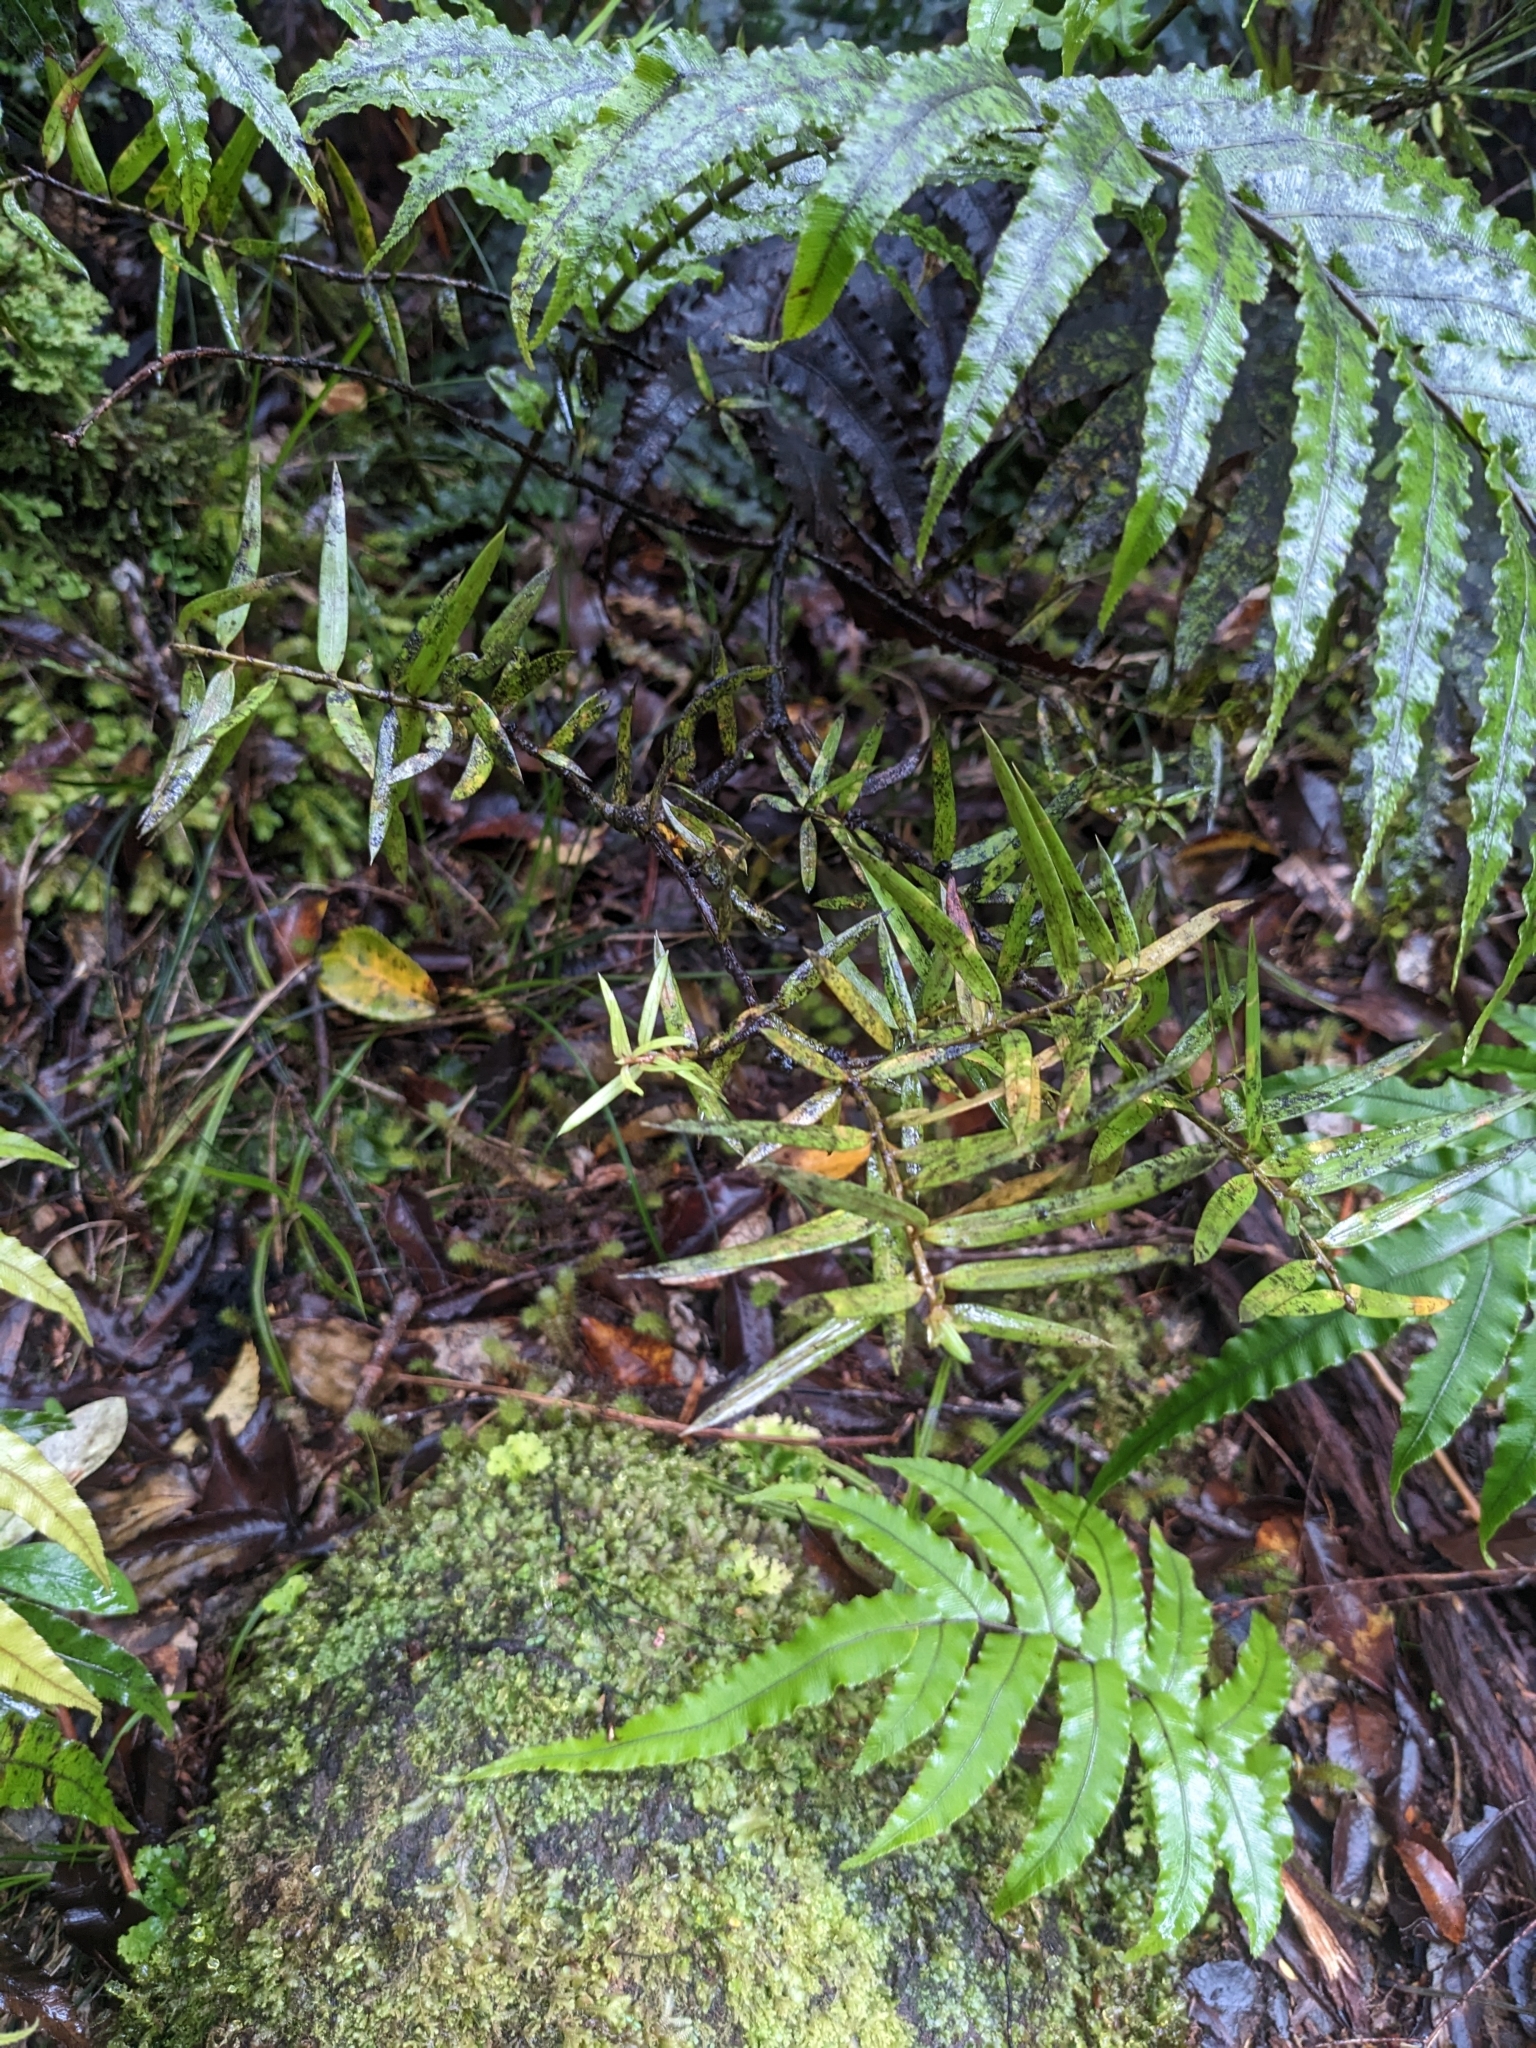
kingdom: Plantae
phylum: Tracheophyta
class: Pinopsida
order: Pinales
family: Podocarpaceae
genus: Podocarpus
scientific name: Podocarpus laetus
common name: Hall's totara
